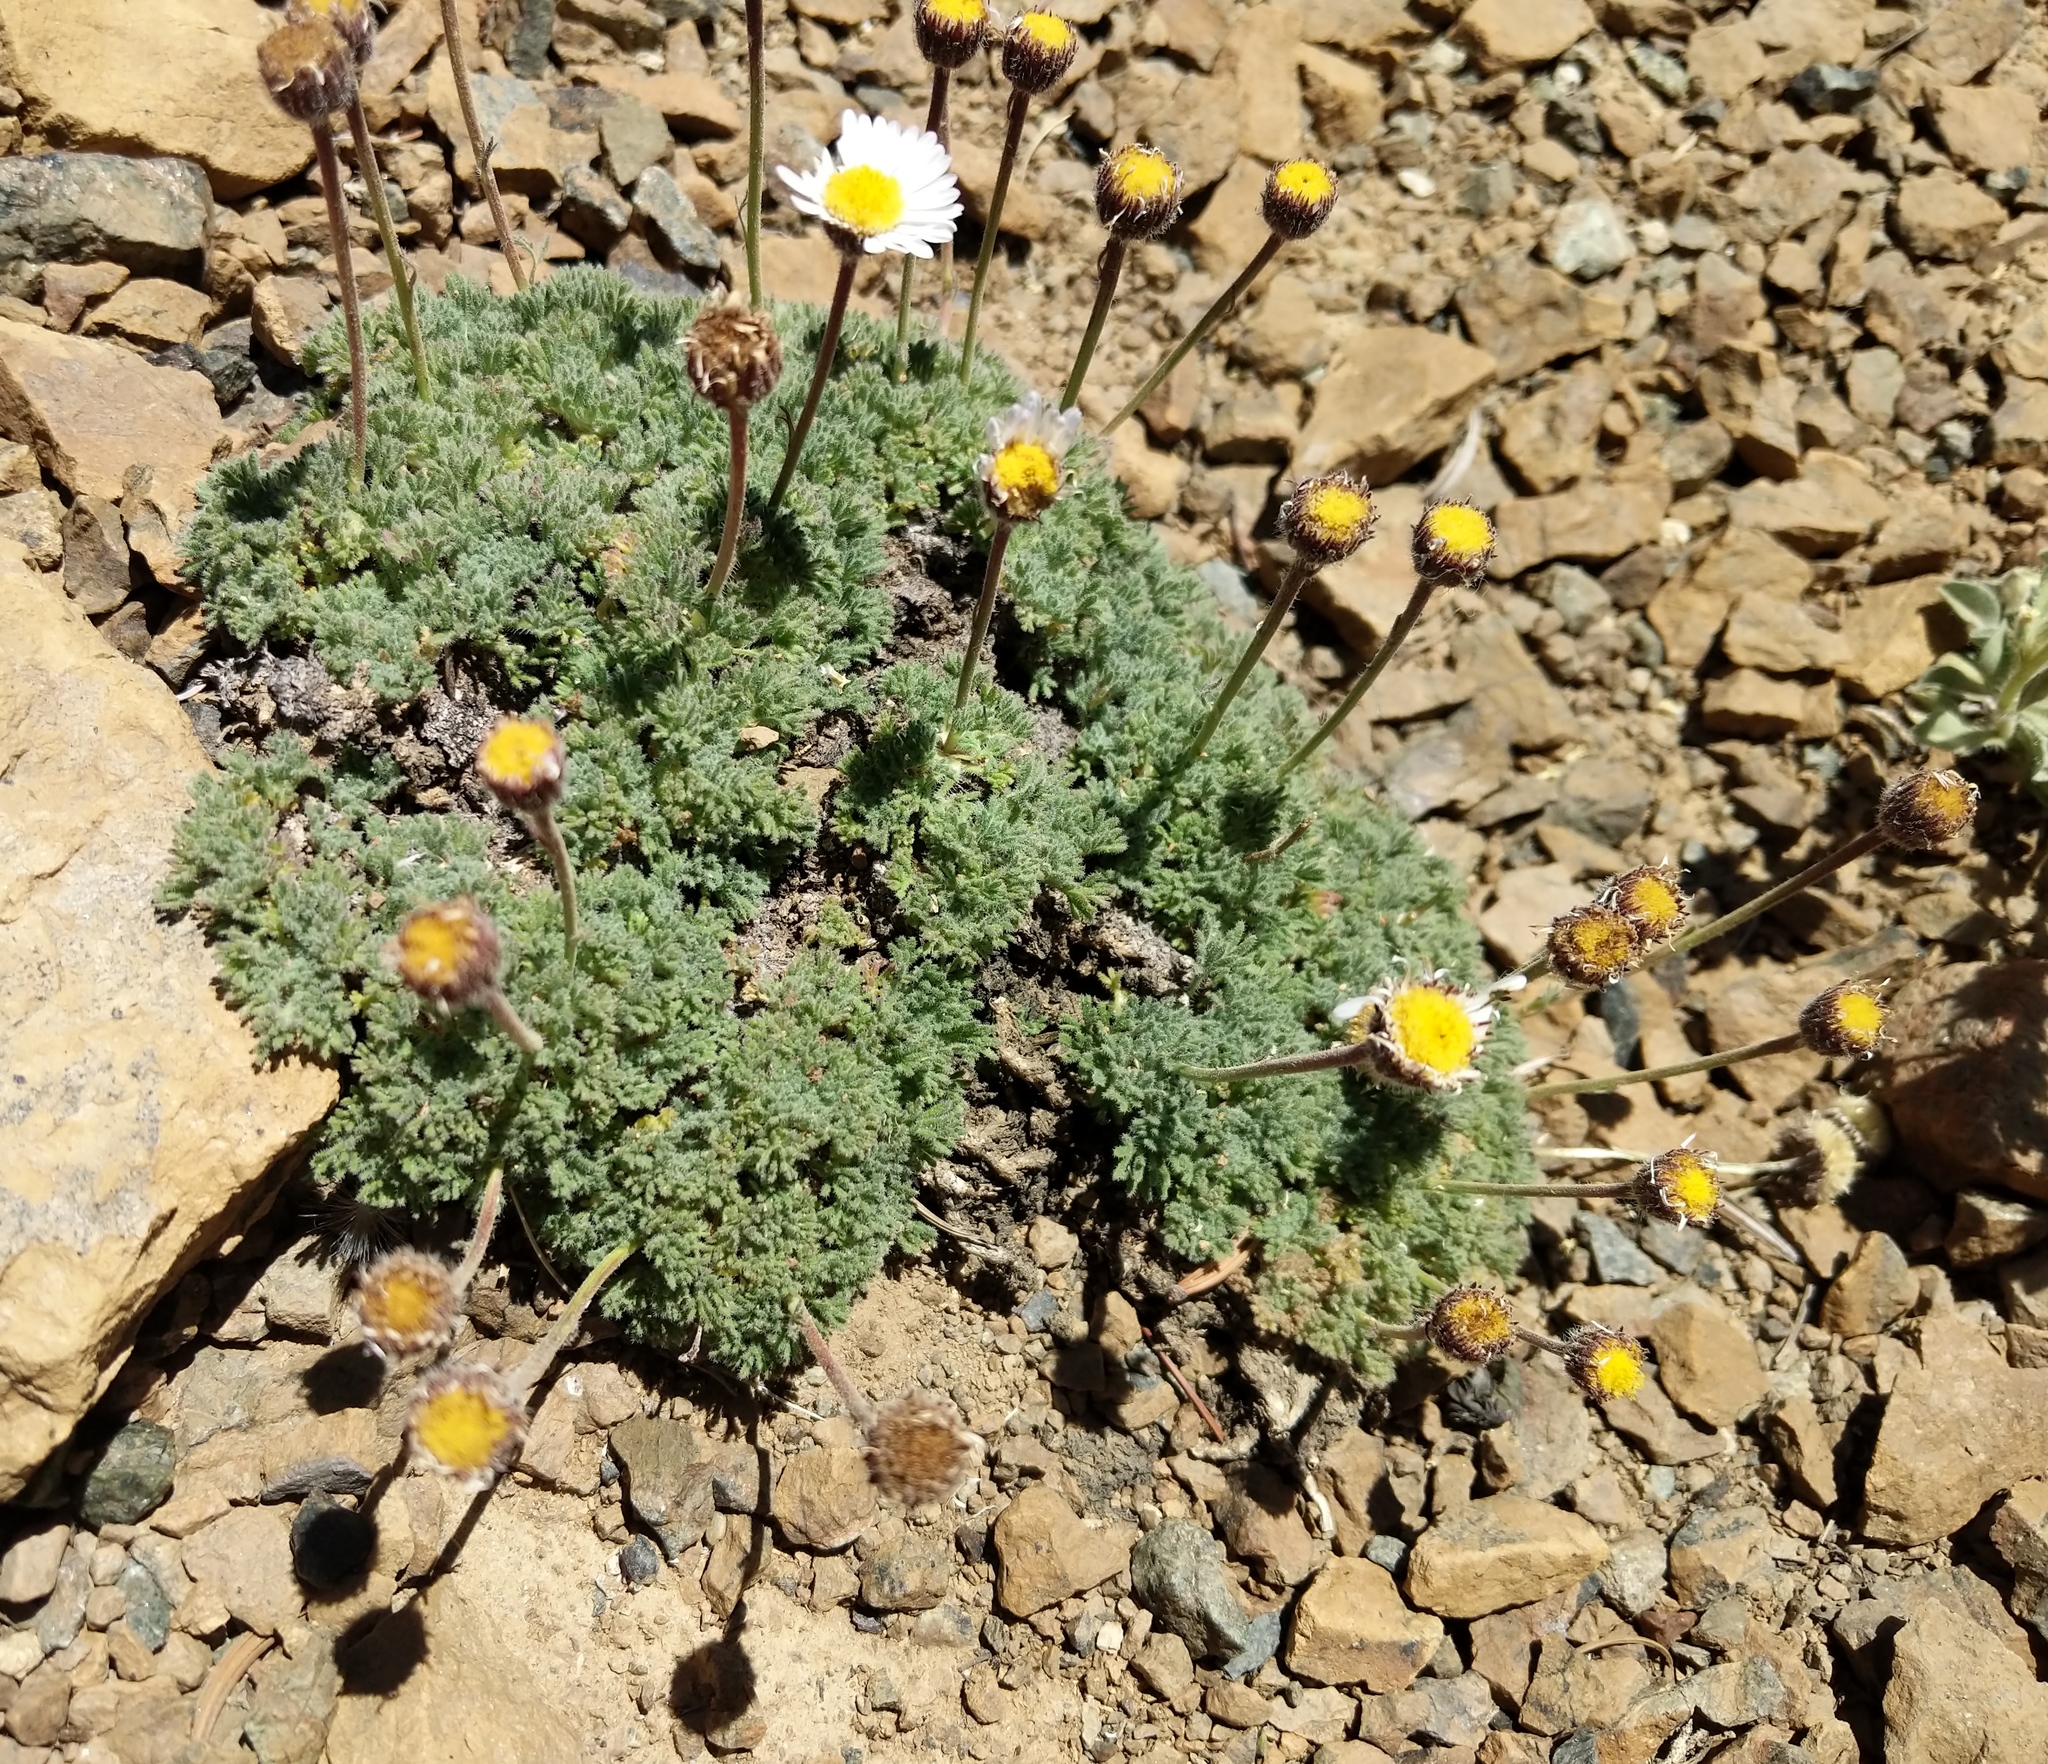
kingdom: Plantae
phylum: Tracheophyta
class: Magnoliopsida
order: Asterales
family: Asteraceae
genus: Erigeron
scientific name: Erigeron compositus
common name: Dwarf mountain fleabane
